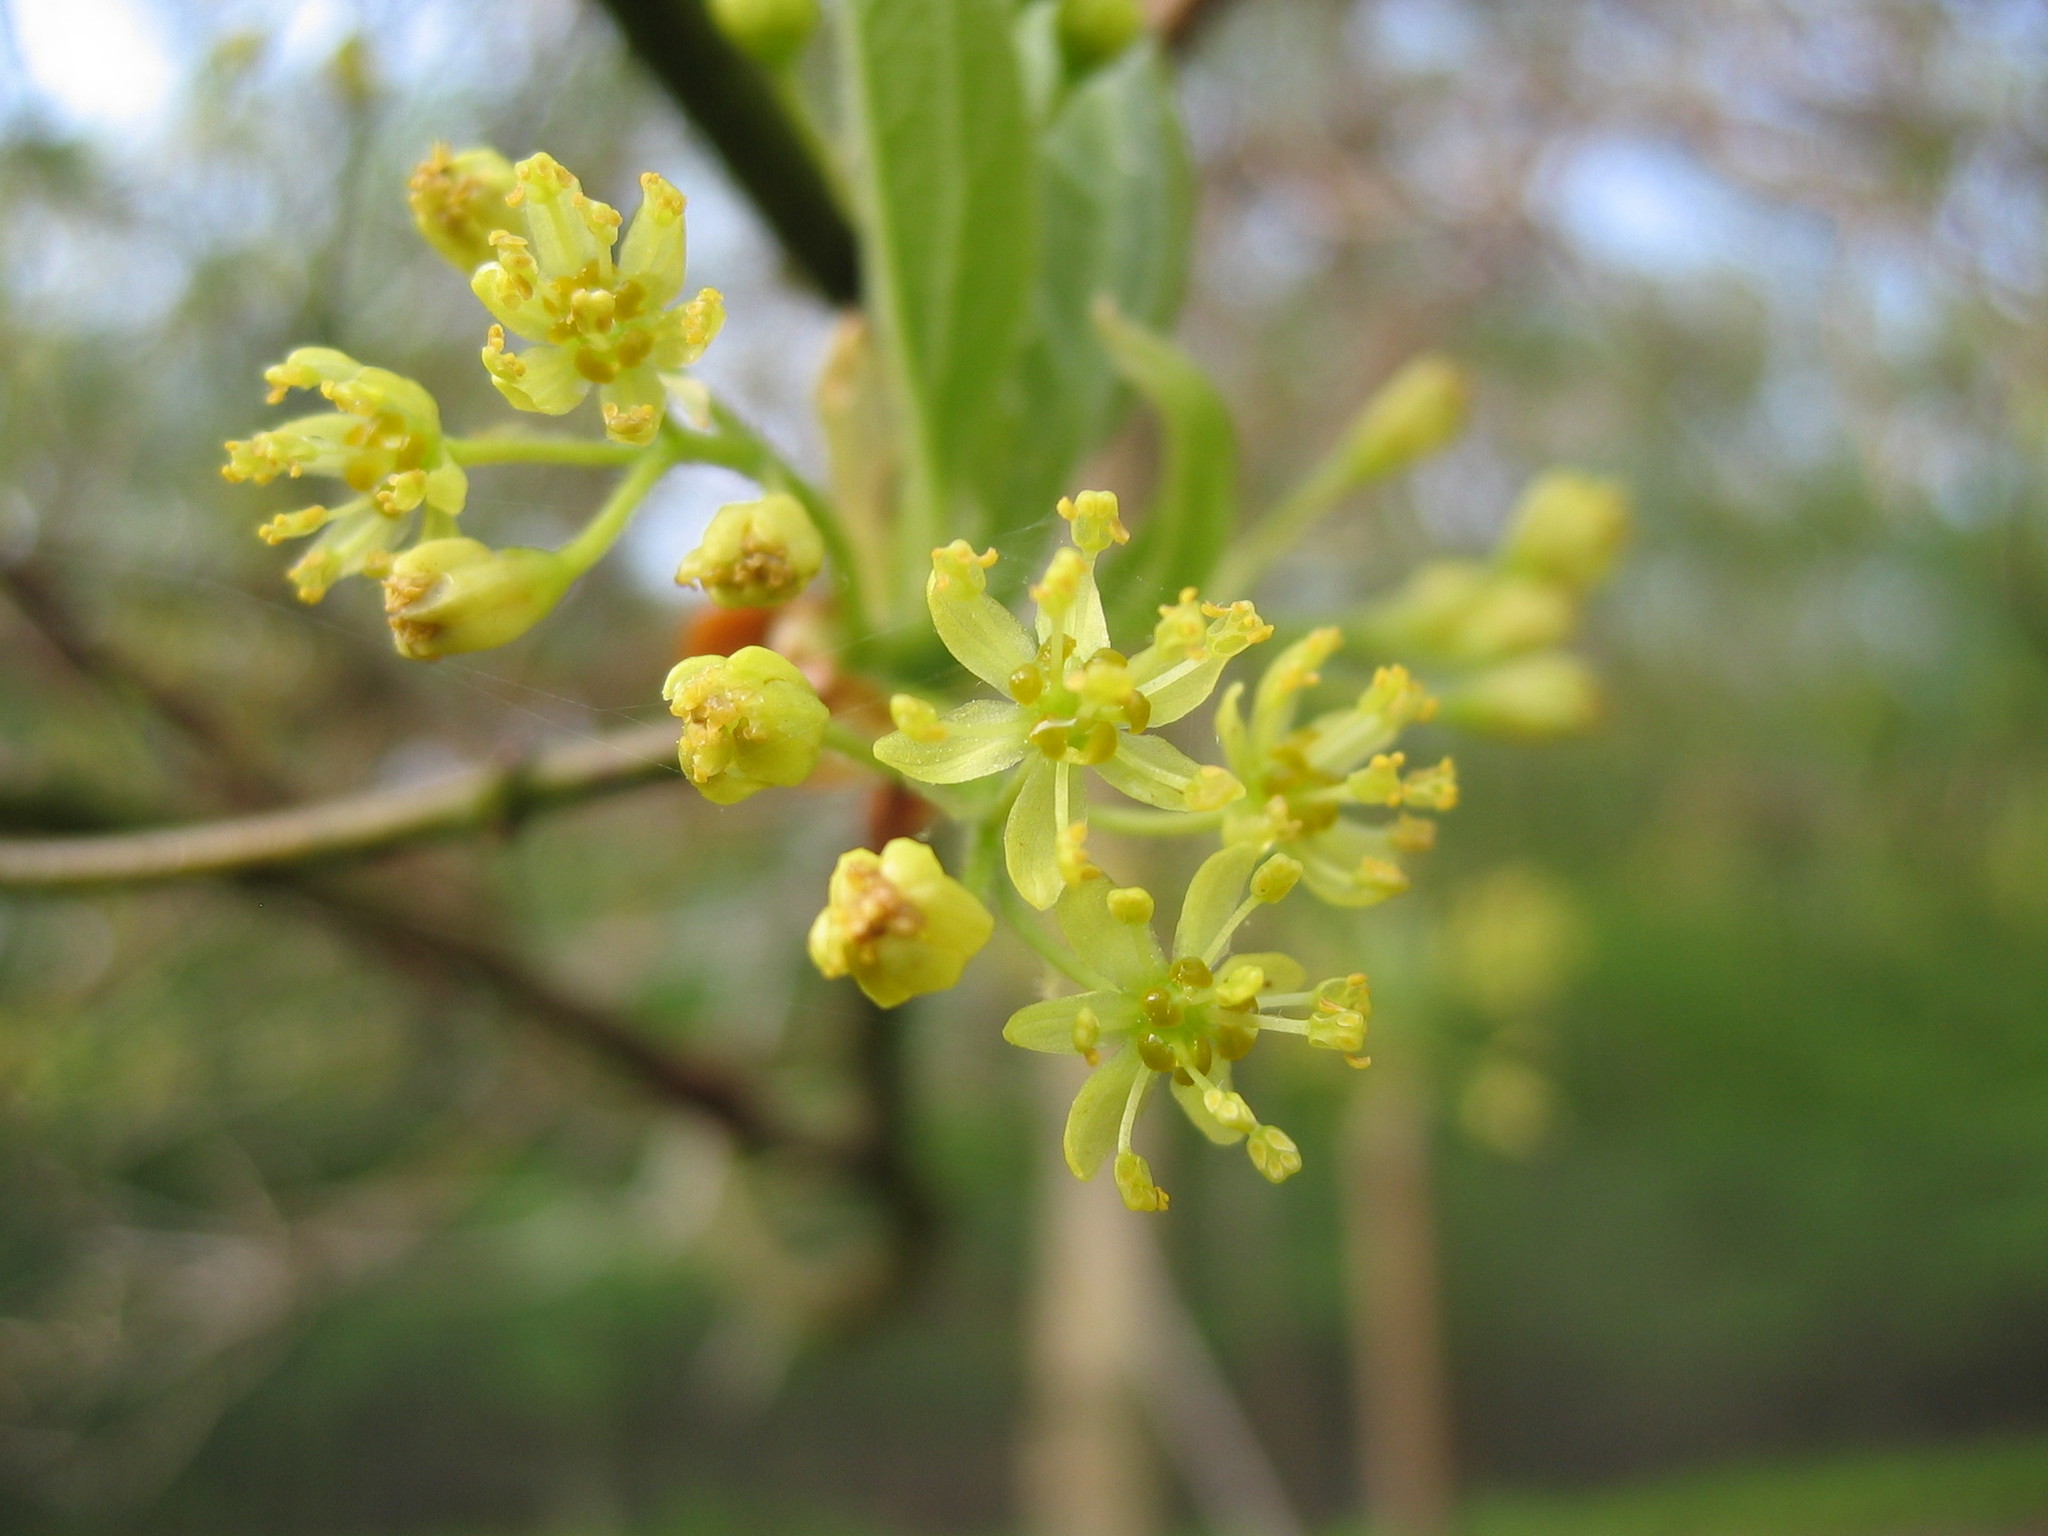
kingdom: Plantae
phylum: Tracheophyta
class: Magnoliopsida
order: Laurales
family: Lauraceae
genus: Sassafras
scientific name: Sassafras albidum
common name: Sassafras
